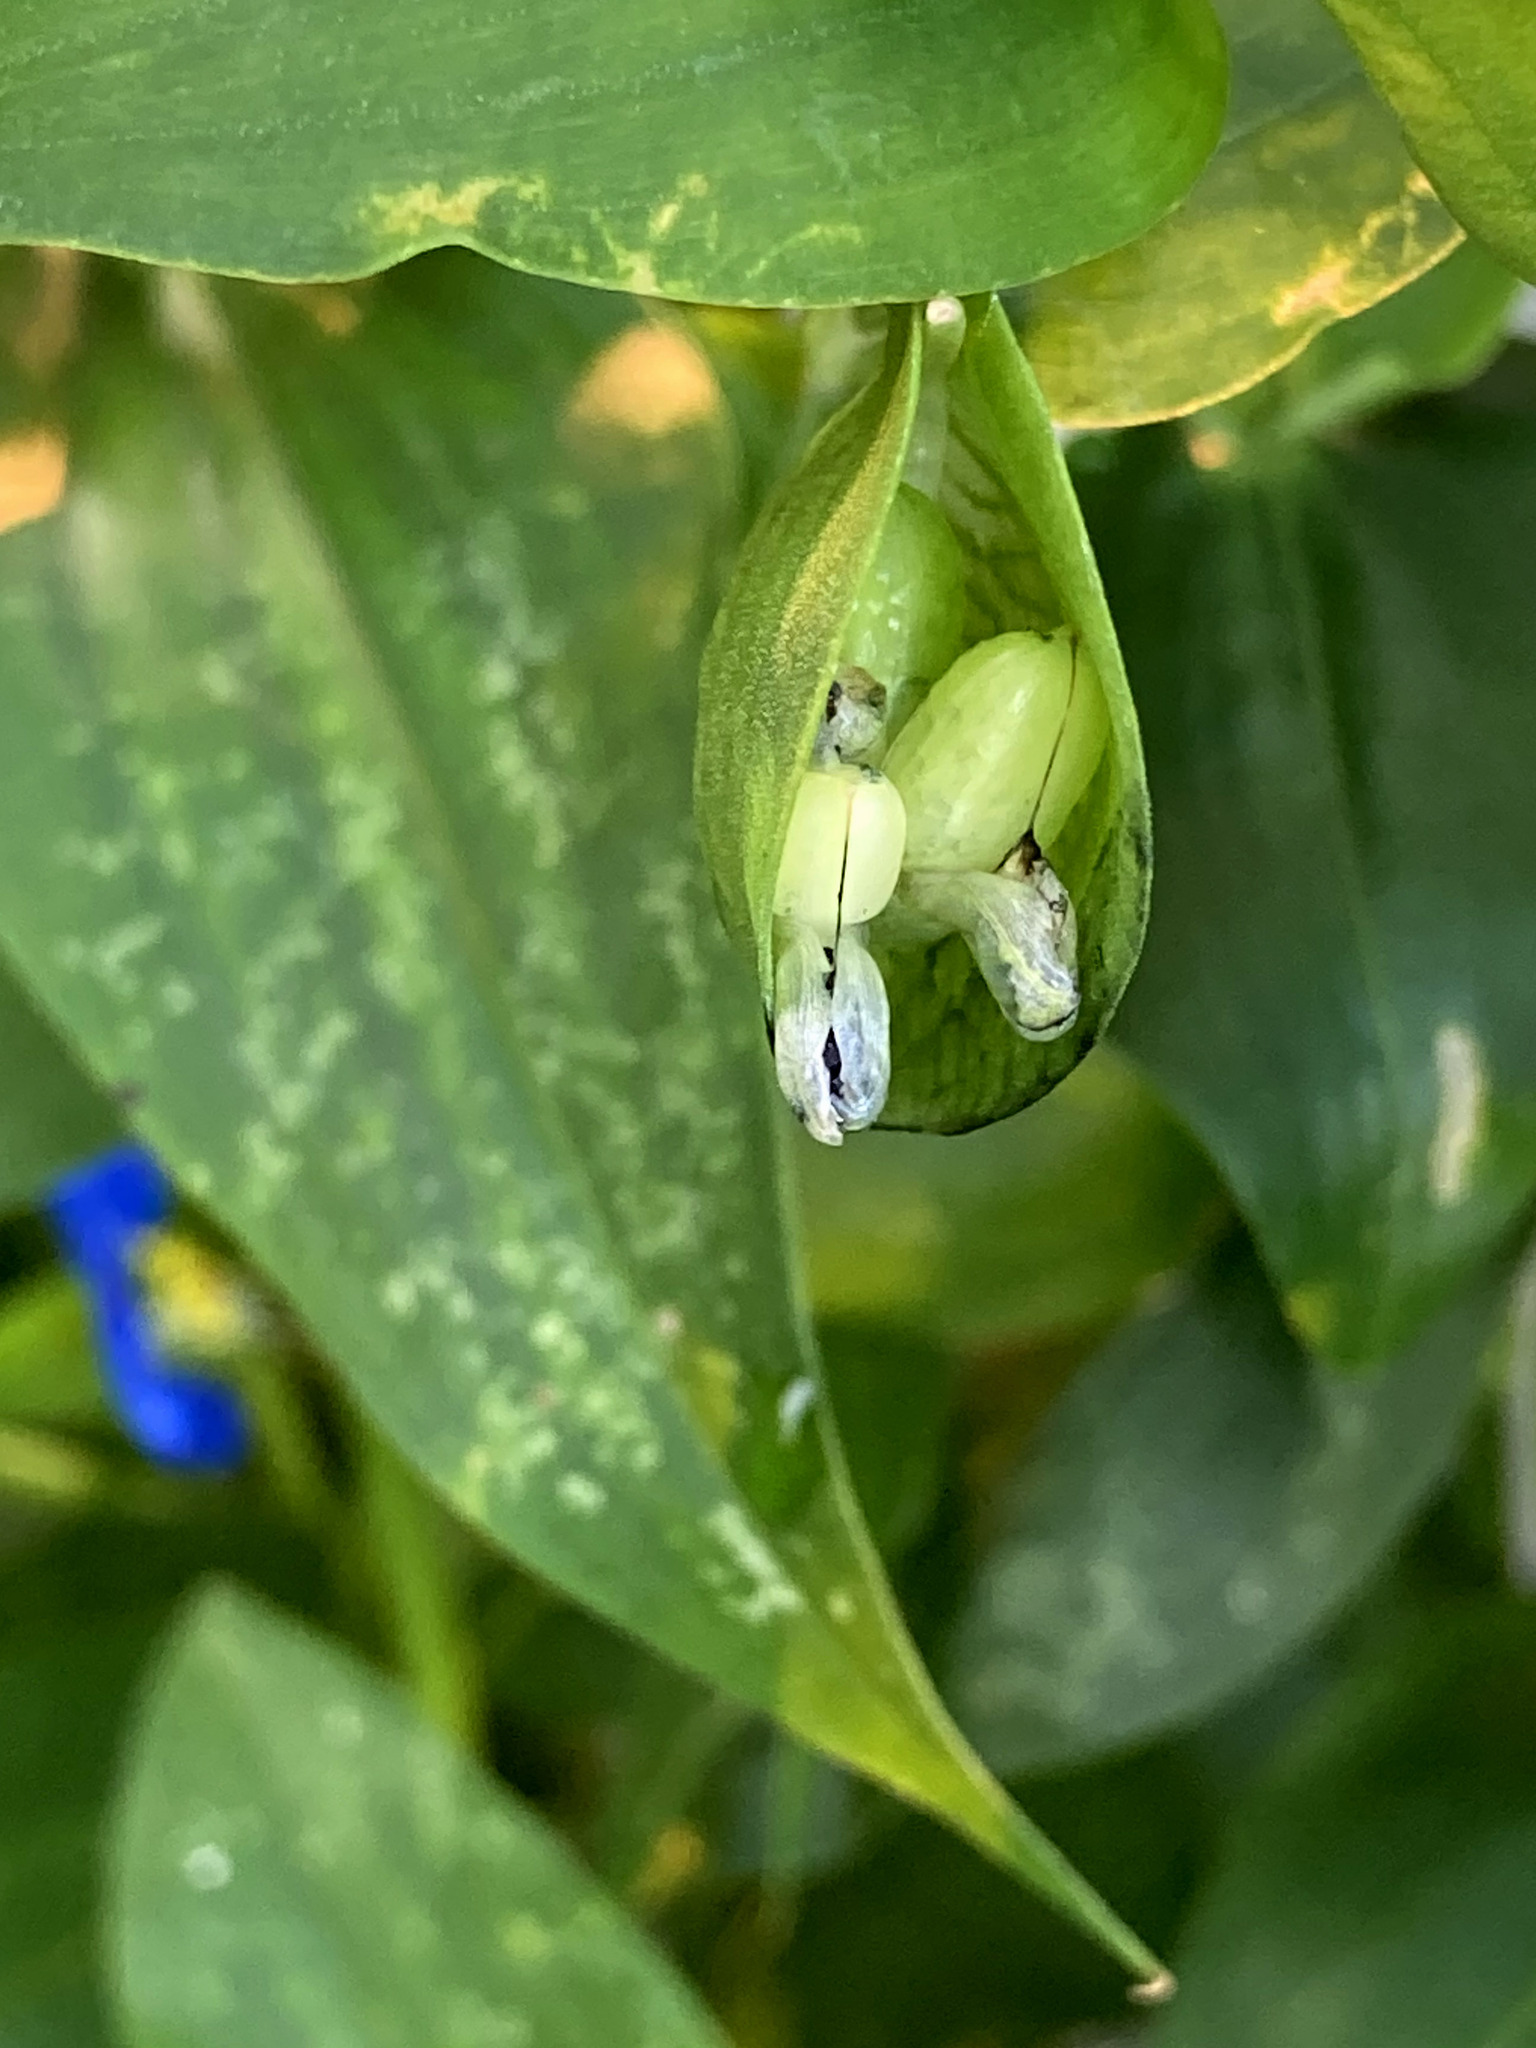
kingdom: Plantae
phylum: Tracheophyta
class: Liliopsida
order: Commelinales
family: Commelinaceae
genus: Commelina
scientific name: Commelina communis
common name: Asiatic dayflower
